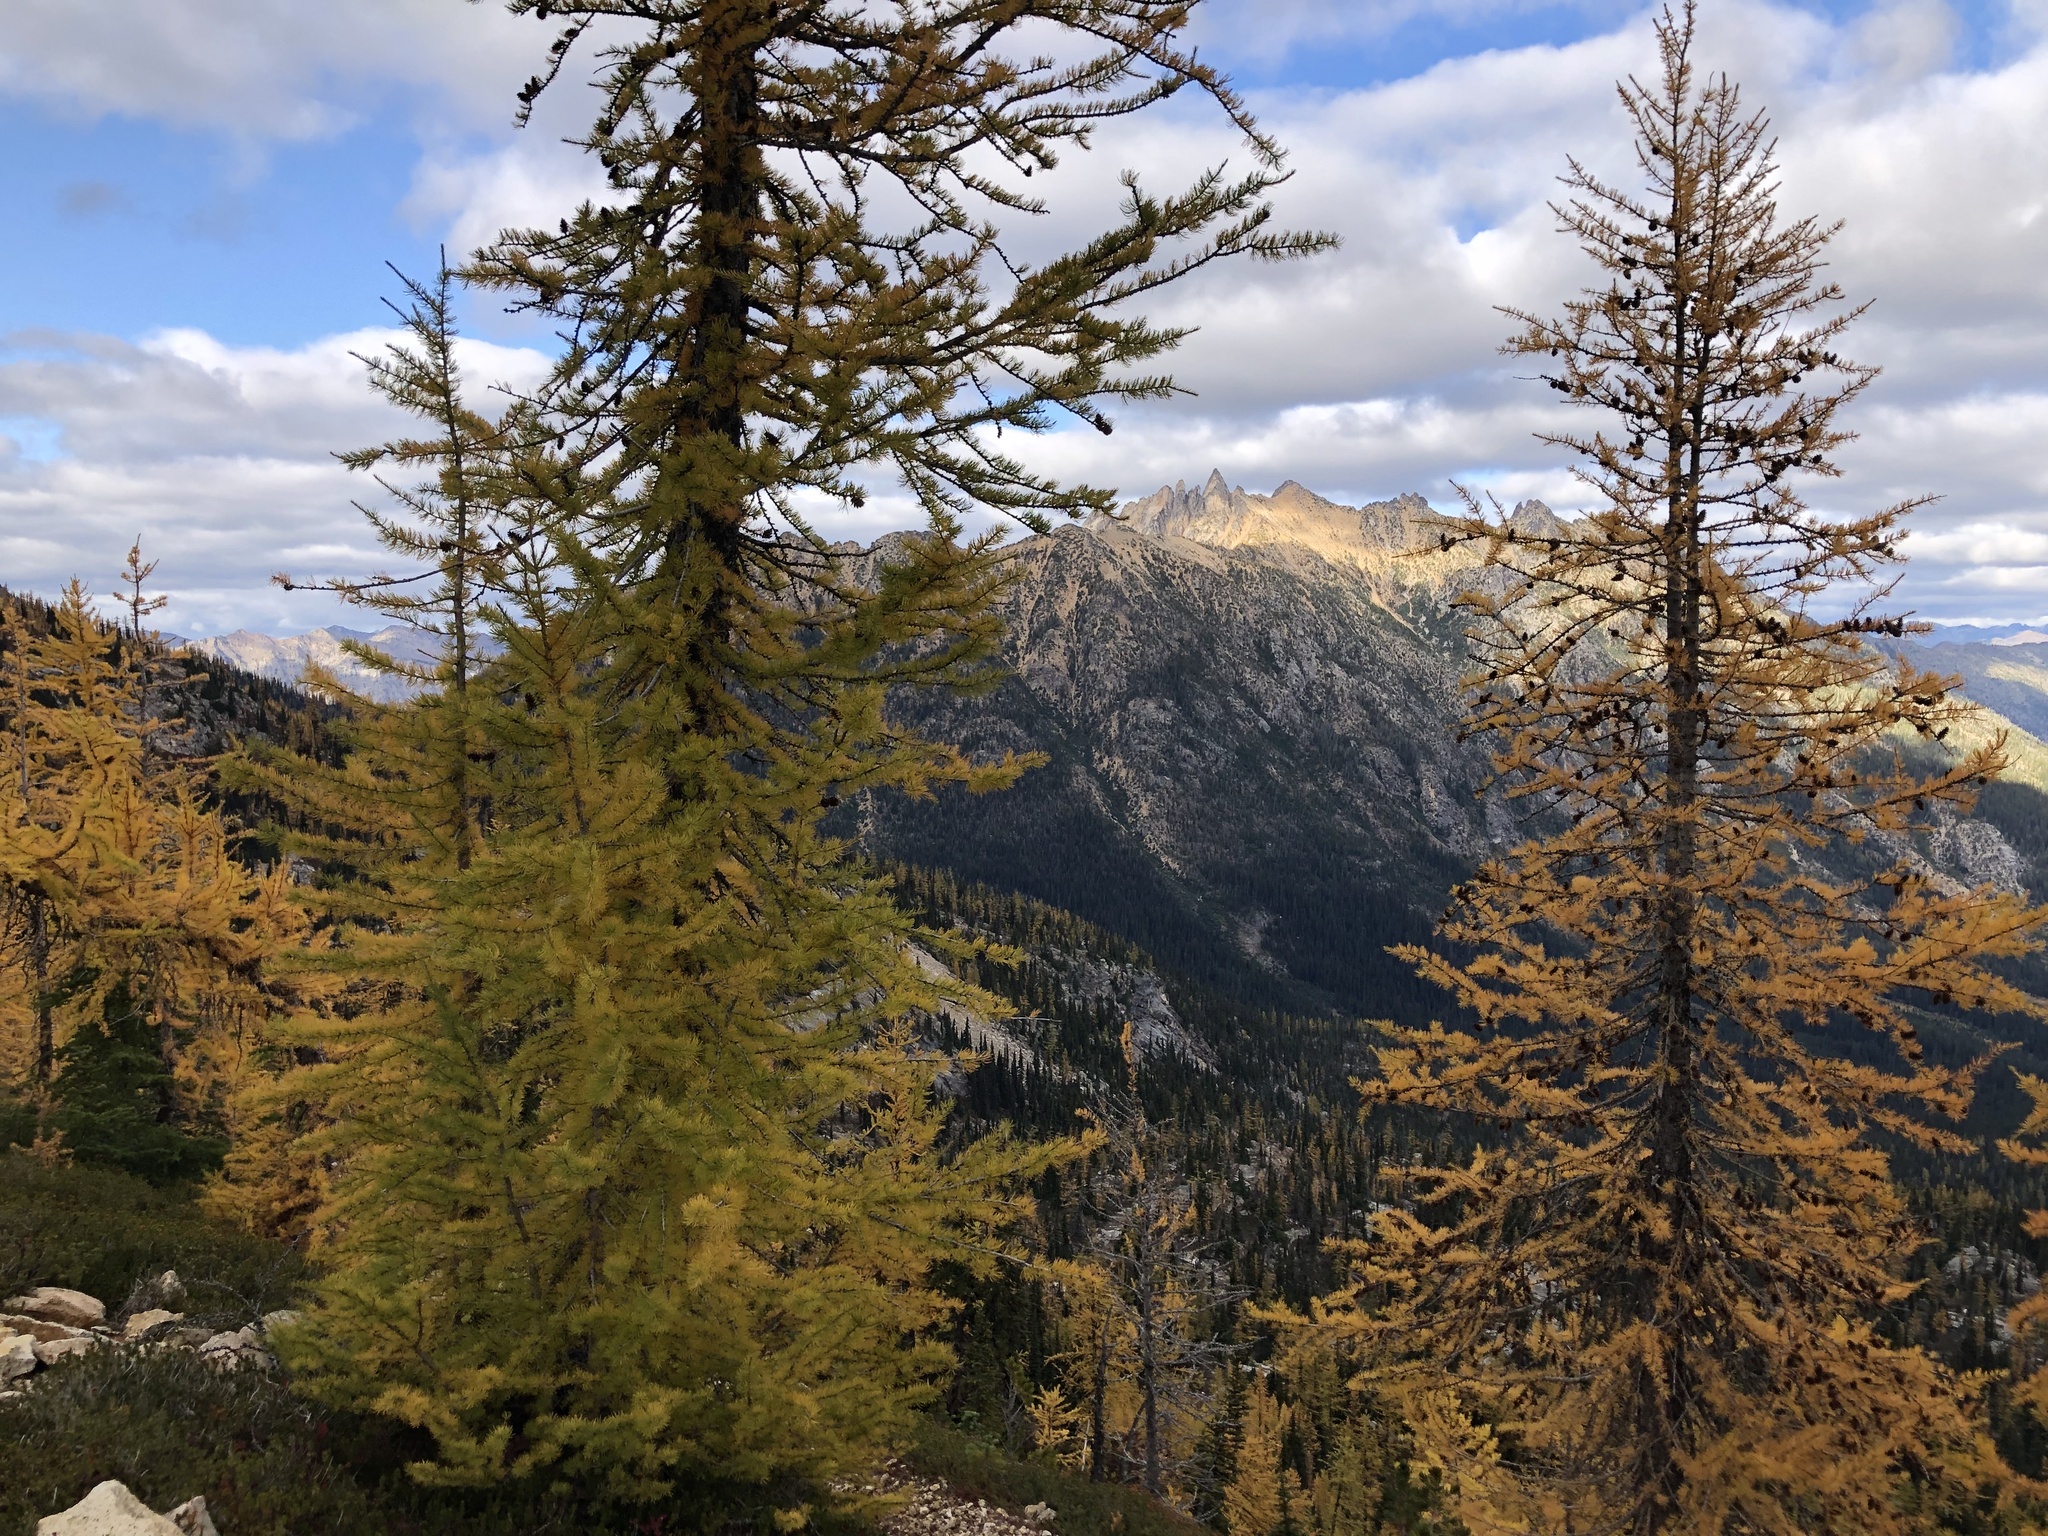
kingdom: Plantae
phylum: Tracheophyta
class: Pinopsida
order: Pinales
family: Pinaceae
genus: Larix
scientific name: Larix lyallii
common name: Alpine larch
